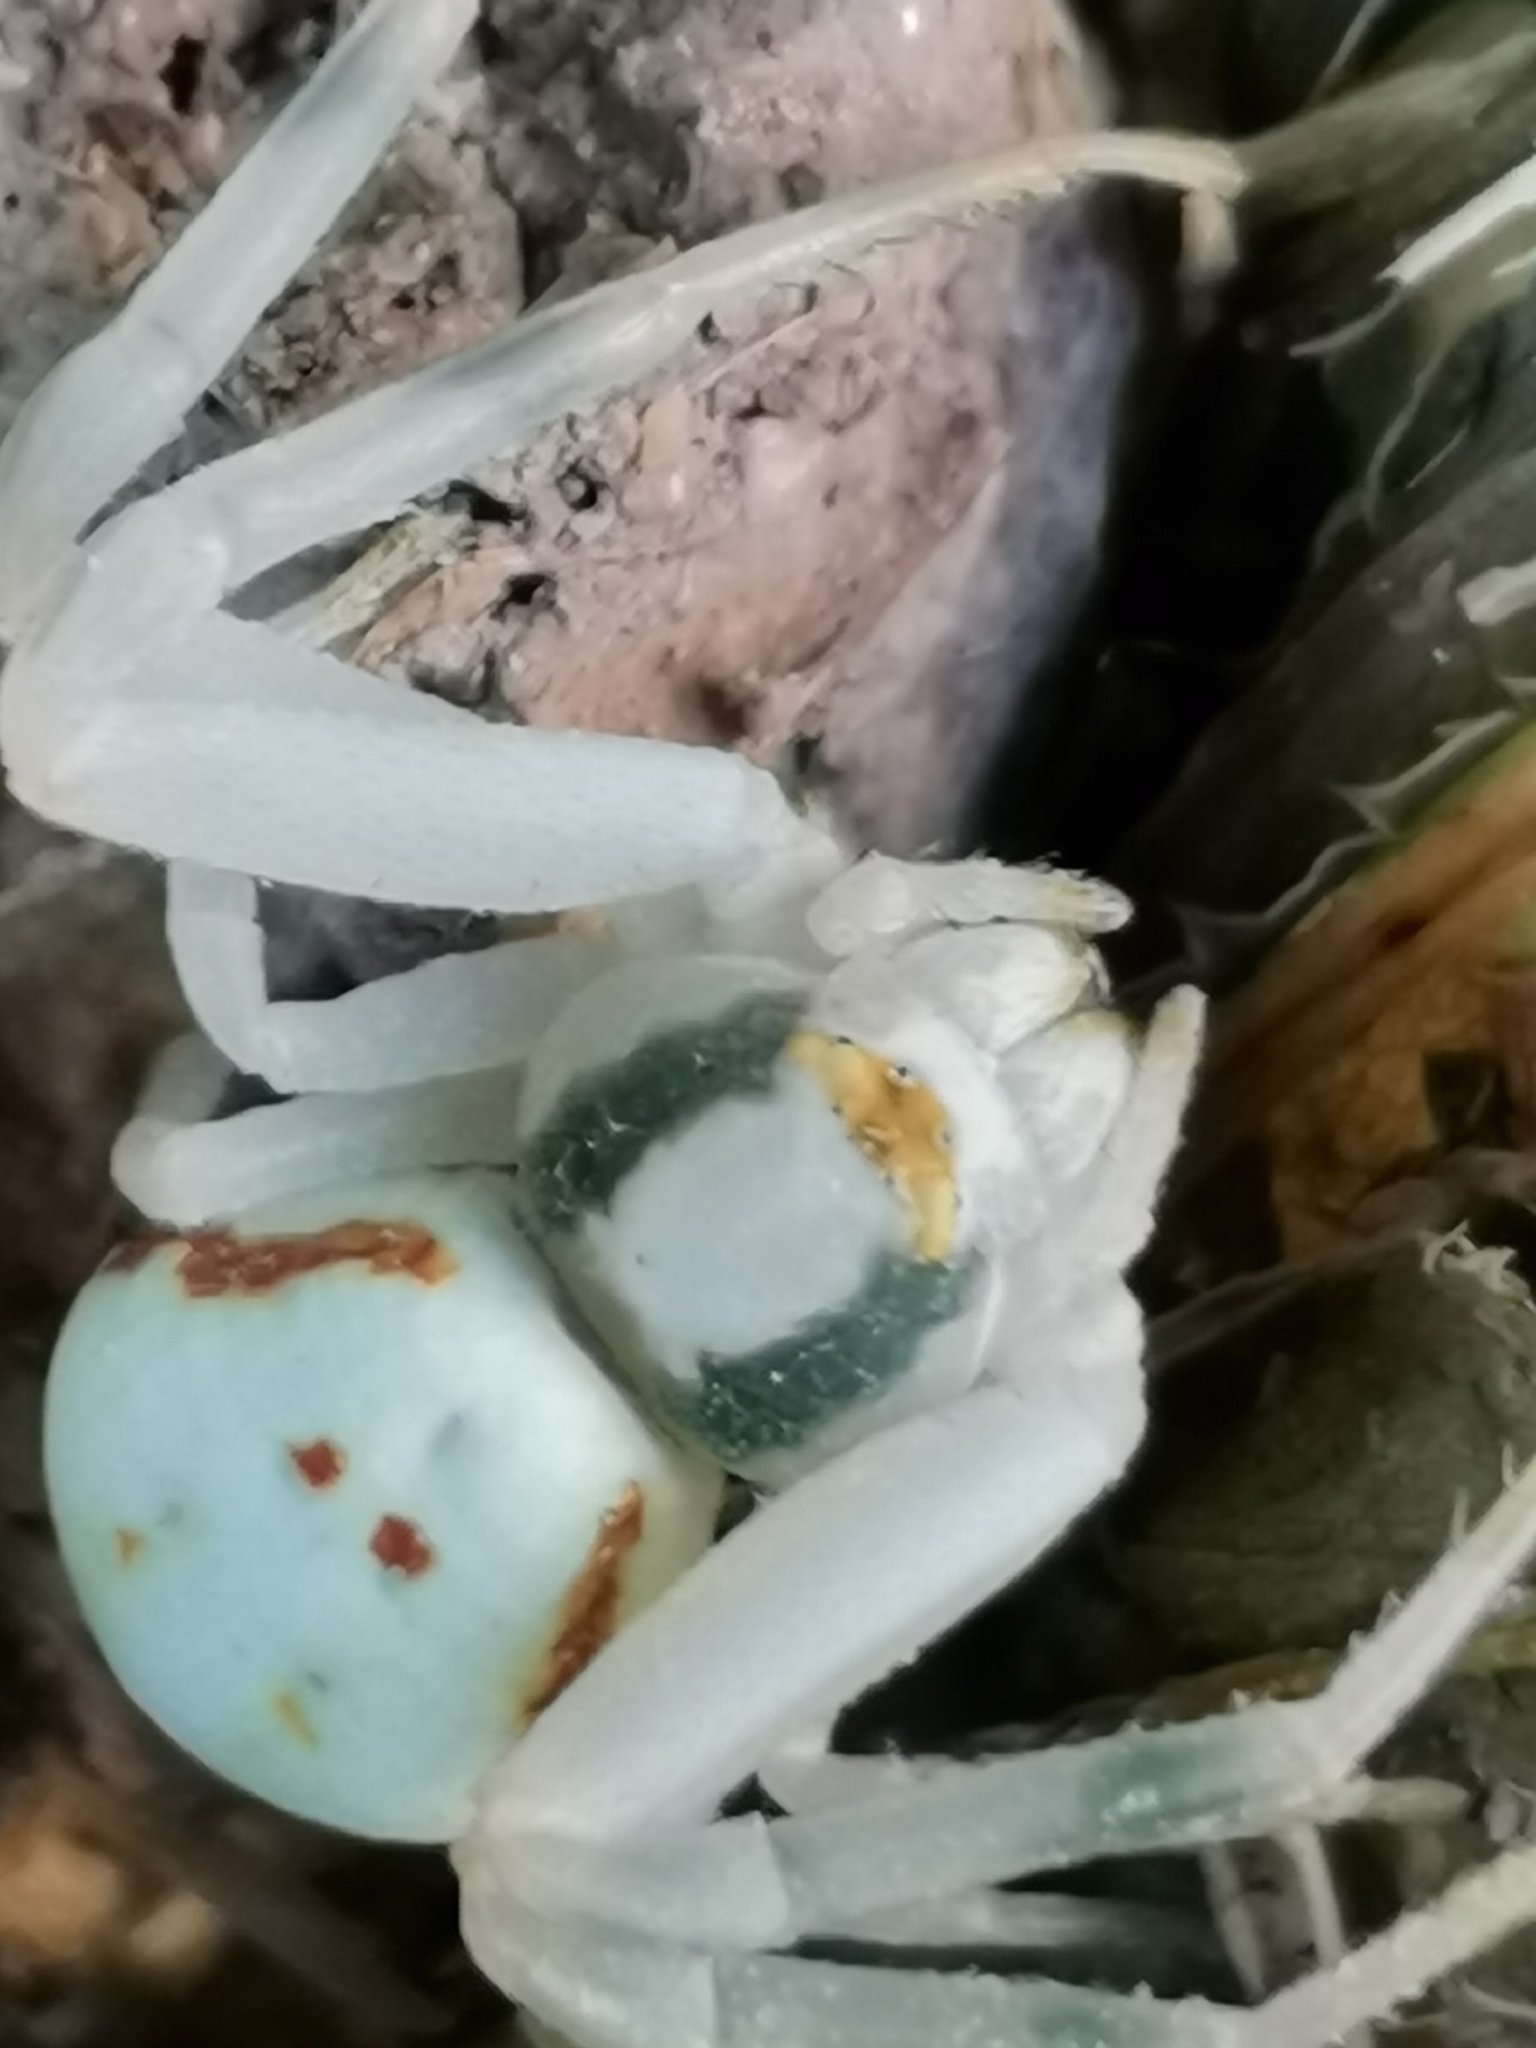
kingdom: Animalia
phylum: Arthropoda
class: Arachnida
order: Araneae
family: Thomisidae
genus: Misumena
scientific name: Misumena vatia
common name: Goldenrod crab spider
